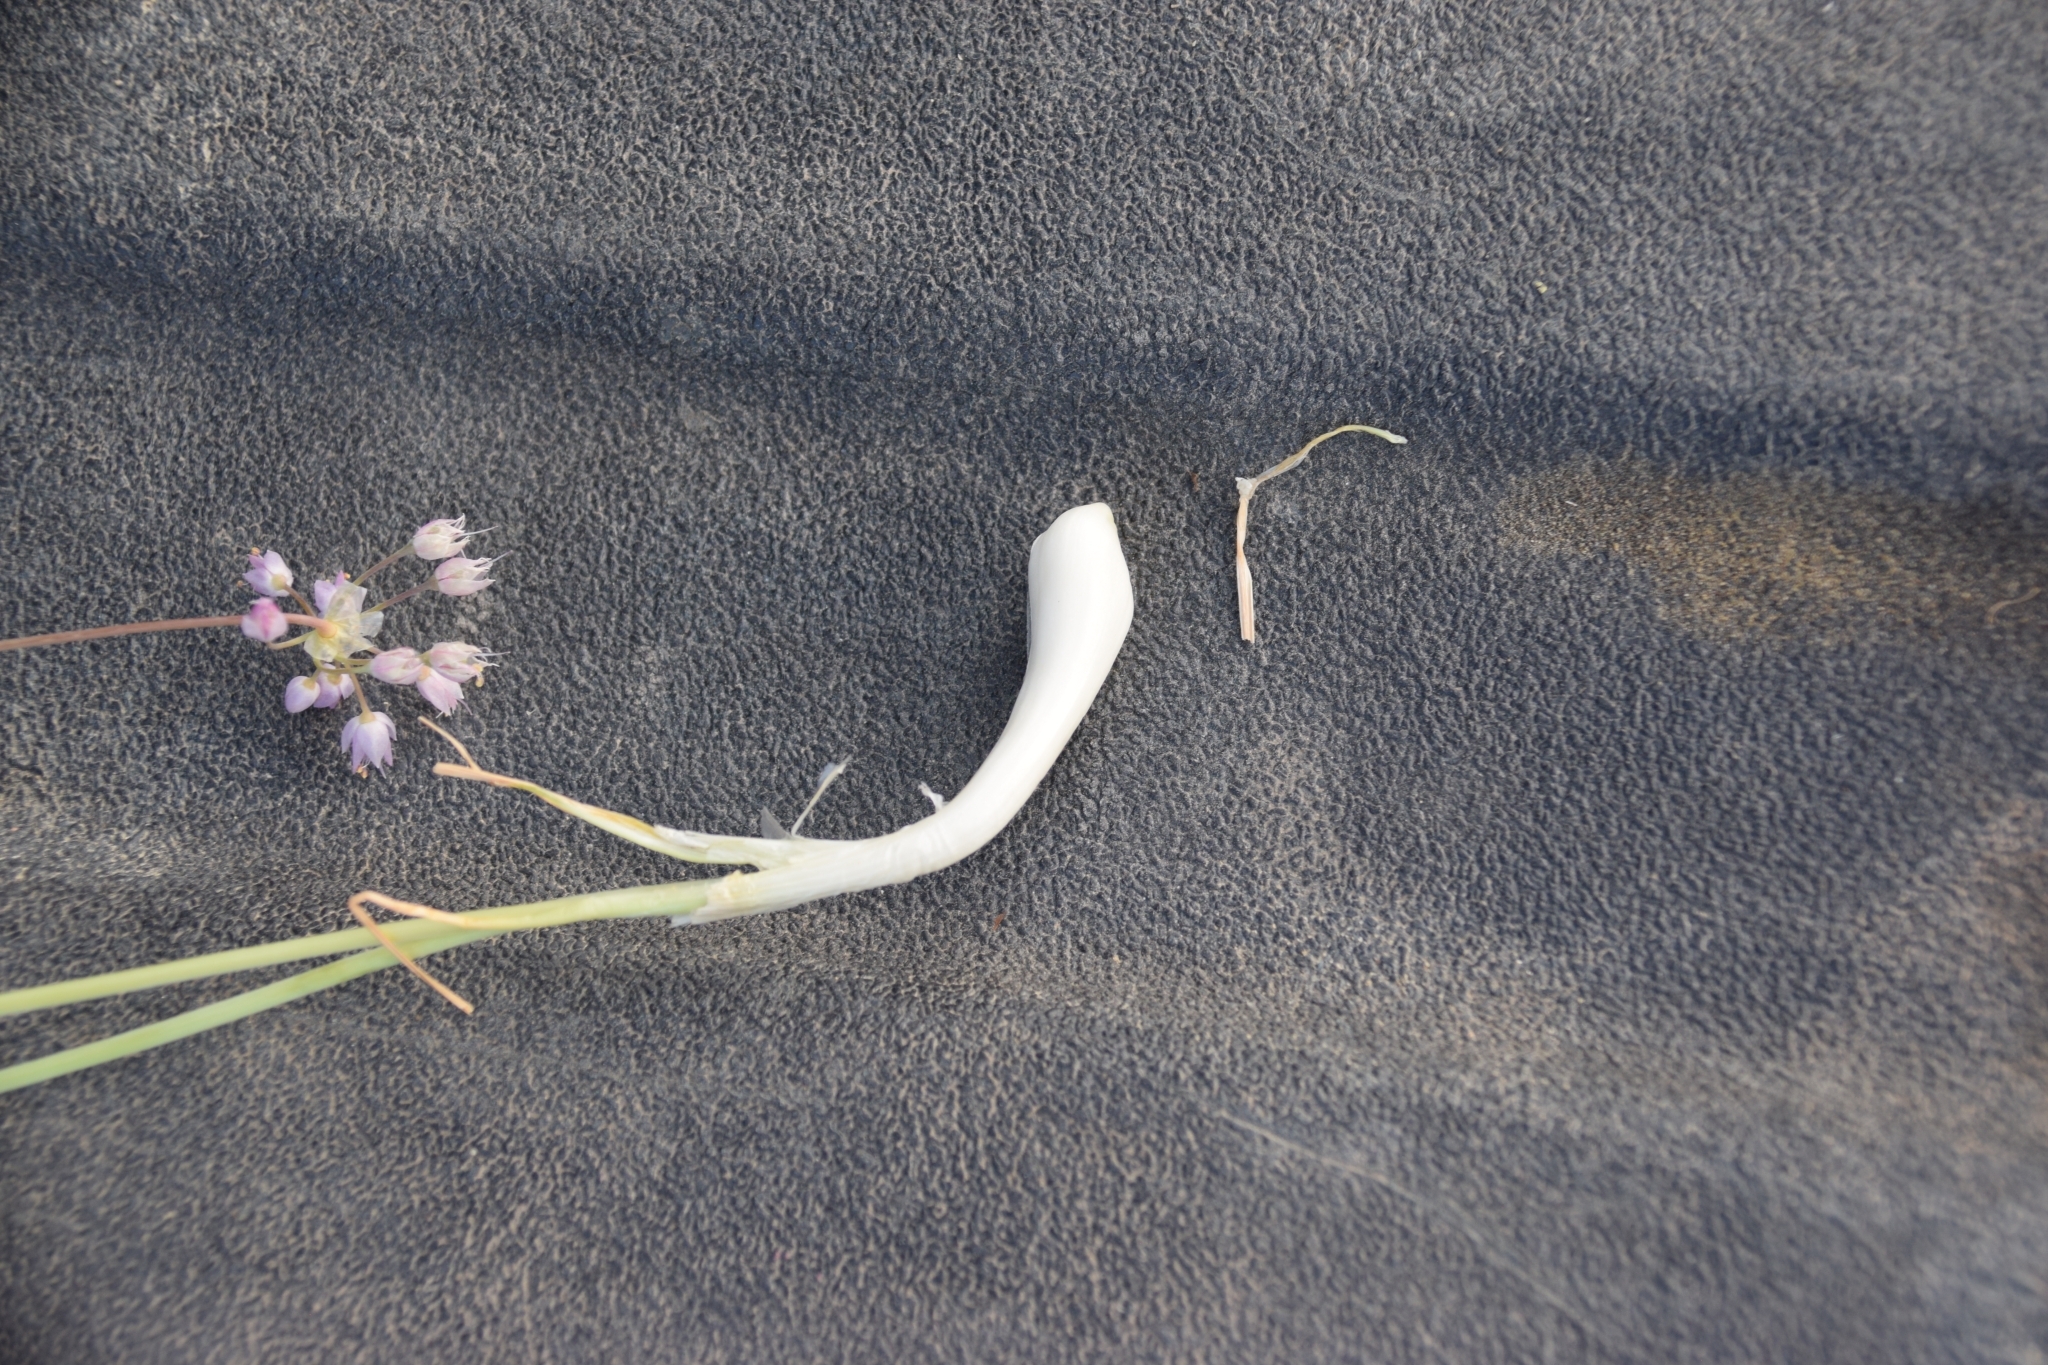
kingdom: Plantae
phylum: Tracheophyta
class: Liliopsida
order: Asparagales
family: Amaryllidaceae
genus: Allium
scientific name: Allium cernuum
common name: Nodding onion
